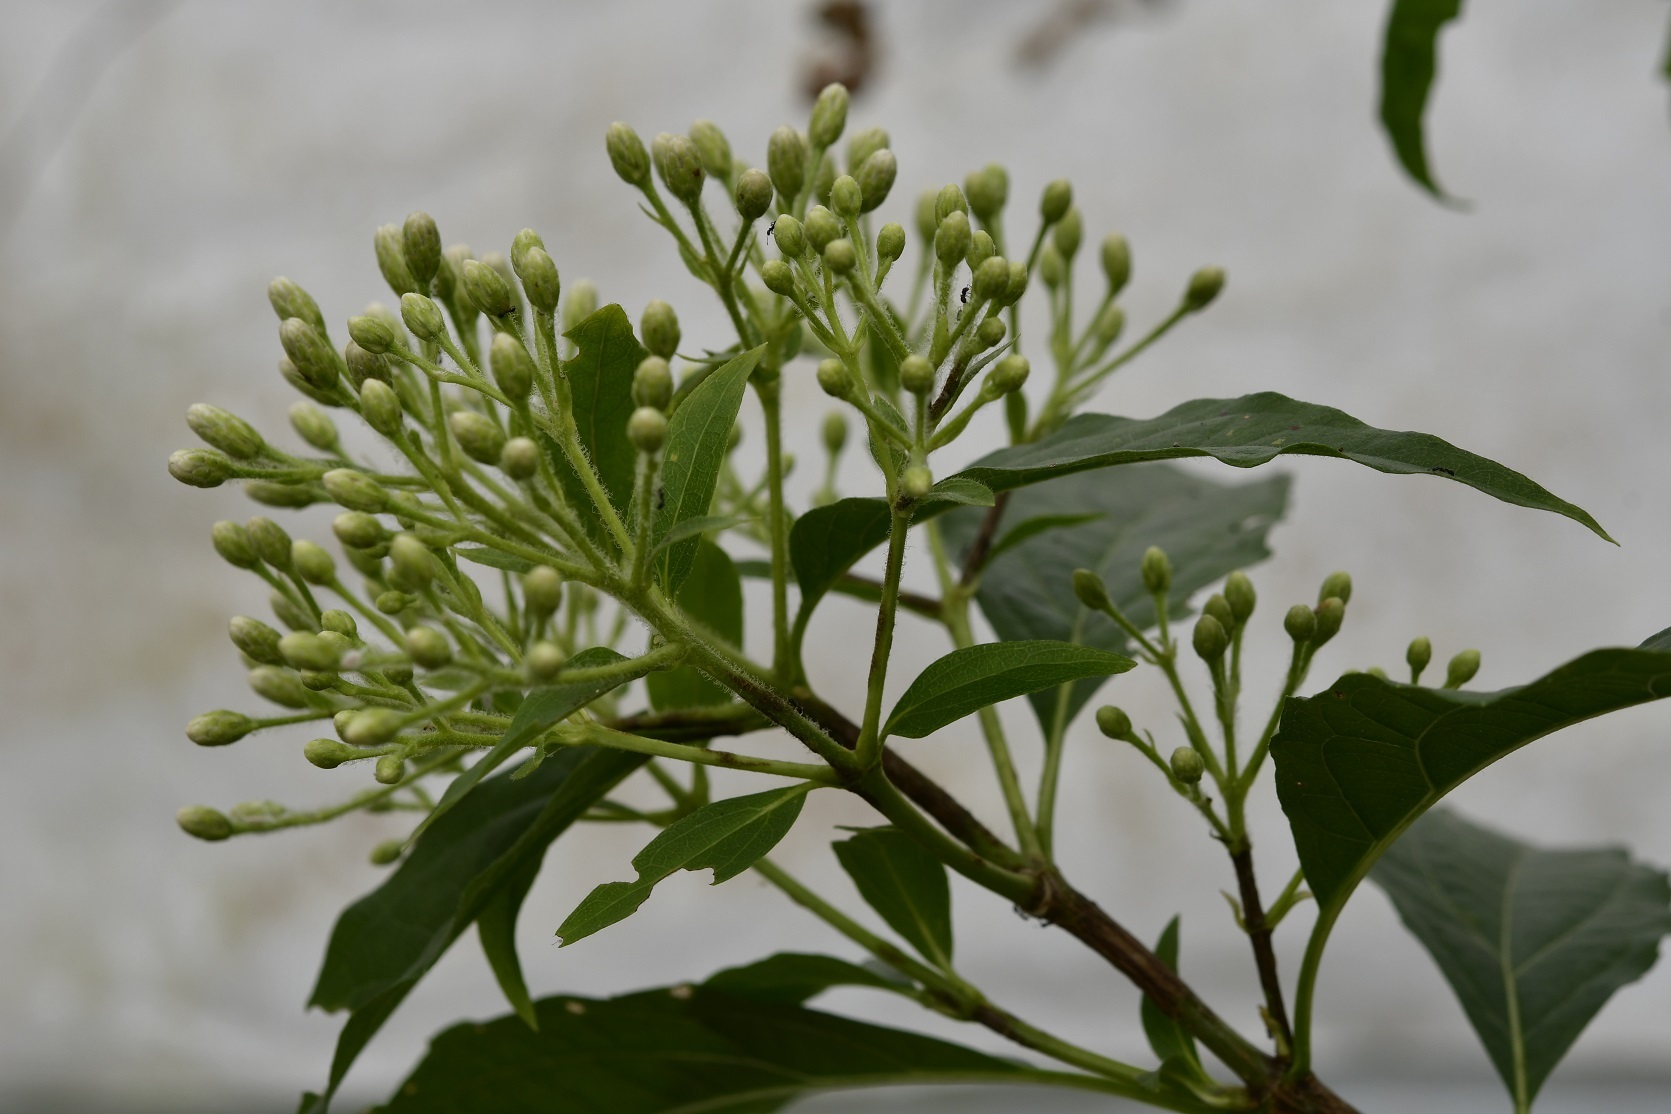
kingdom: Plantae
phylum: Tracheophyta
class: Magnoliopsida
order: Asterales
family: Asteraceae
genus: Chromolaena
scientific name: Chromolaena glaberrima
